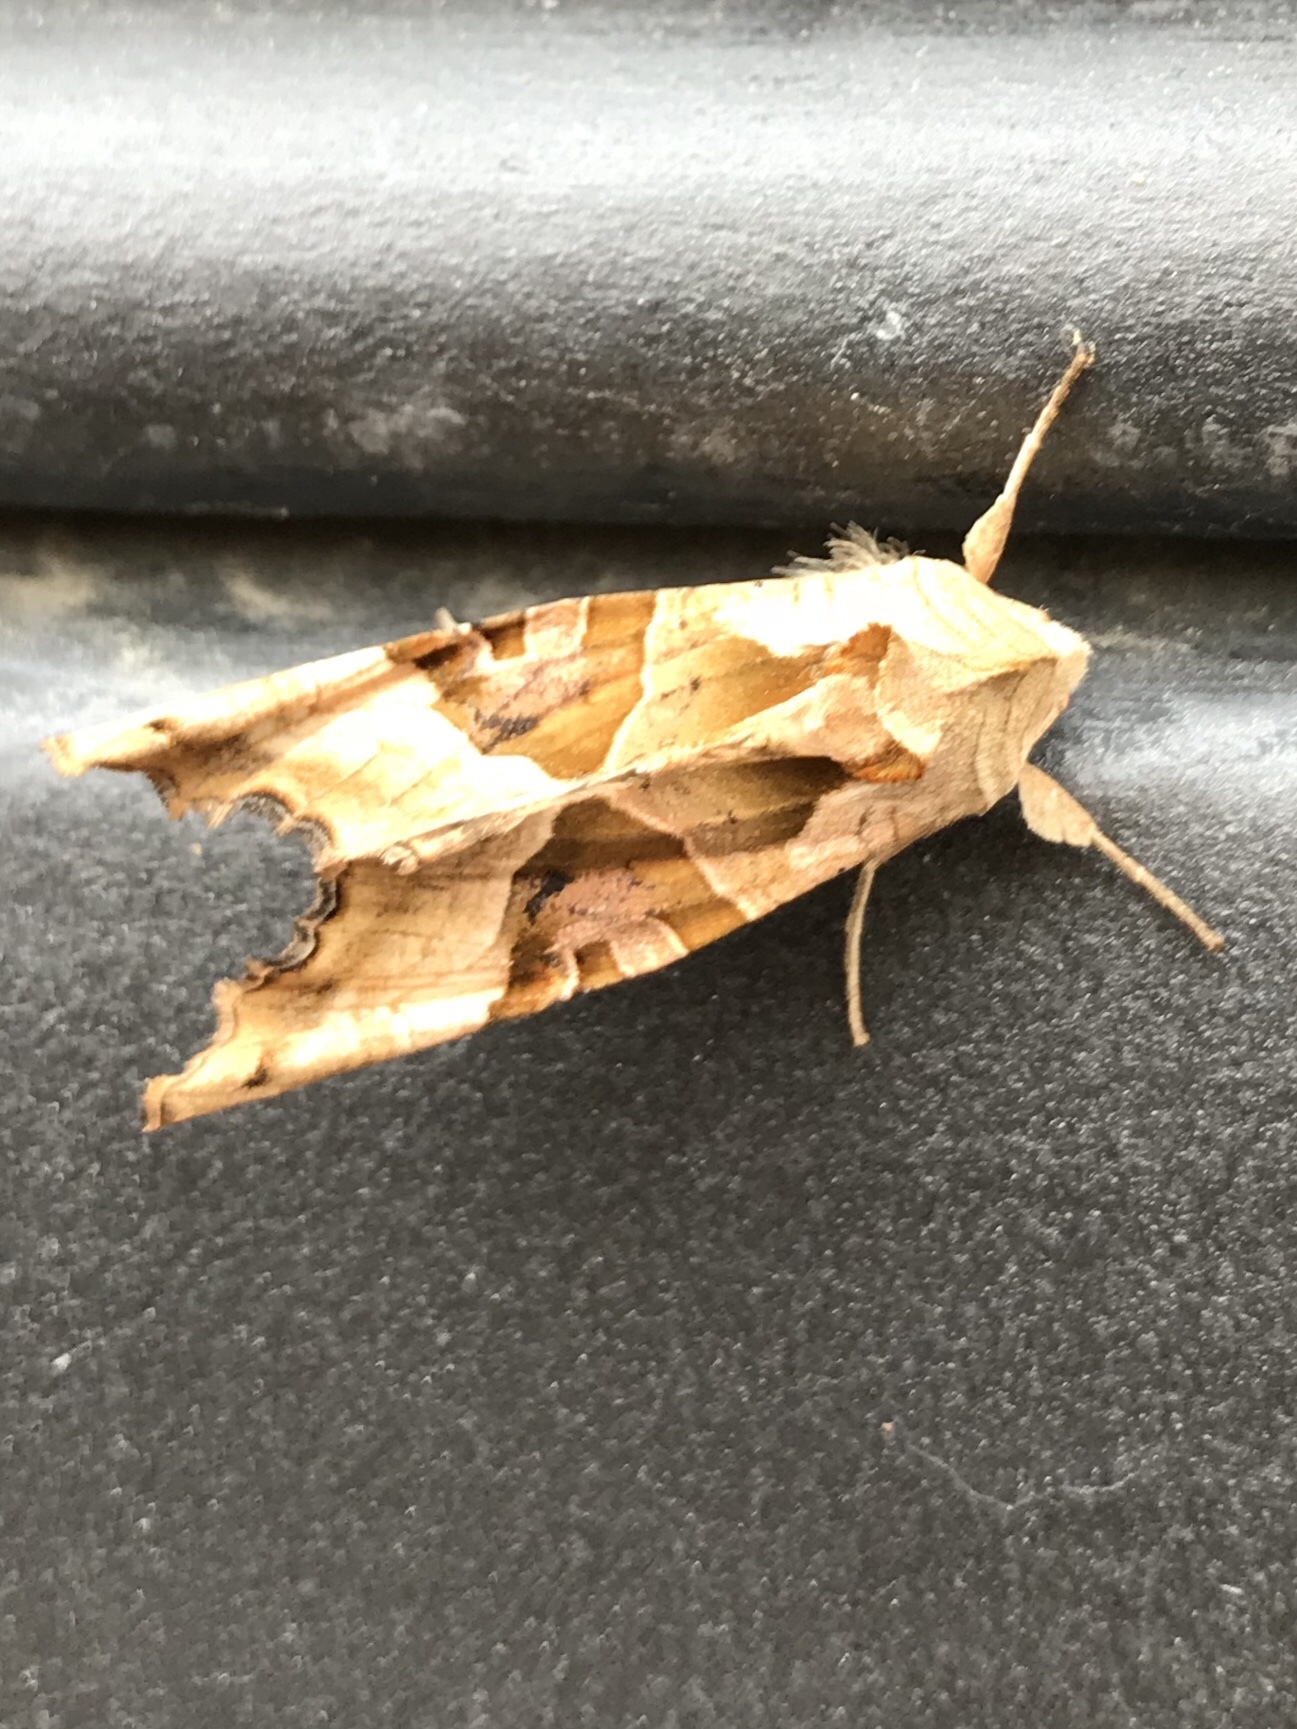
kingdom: Animalia
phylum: Arthropoda
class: Insecta
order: Lepidoptera
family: Noctuidae
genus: Phlogophora
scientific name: Phlogophora meticulosa
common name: Angle shades
